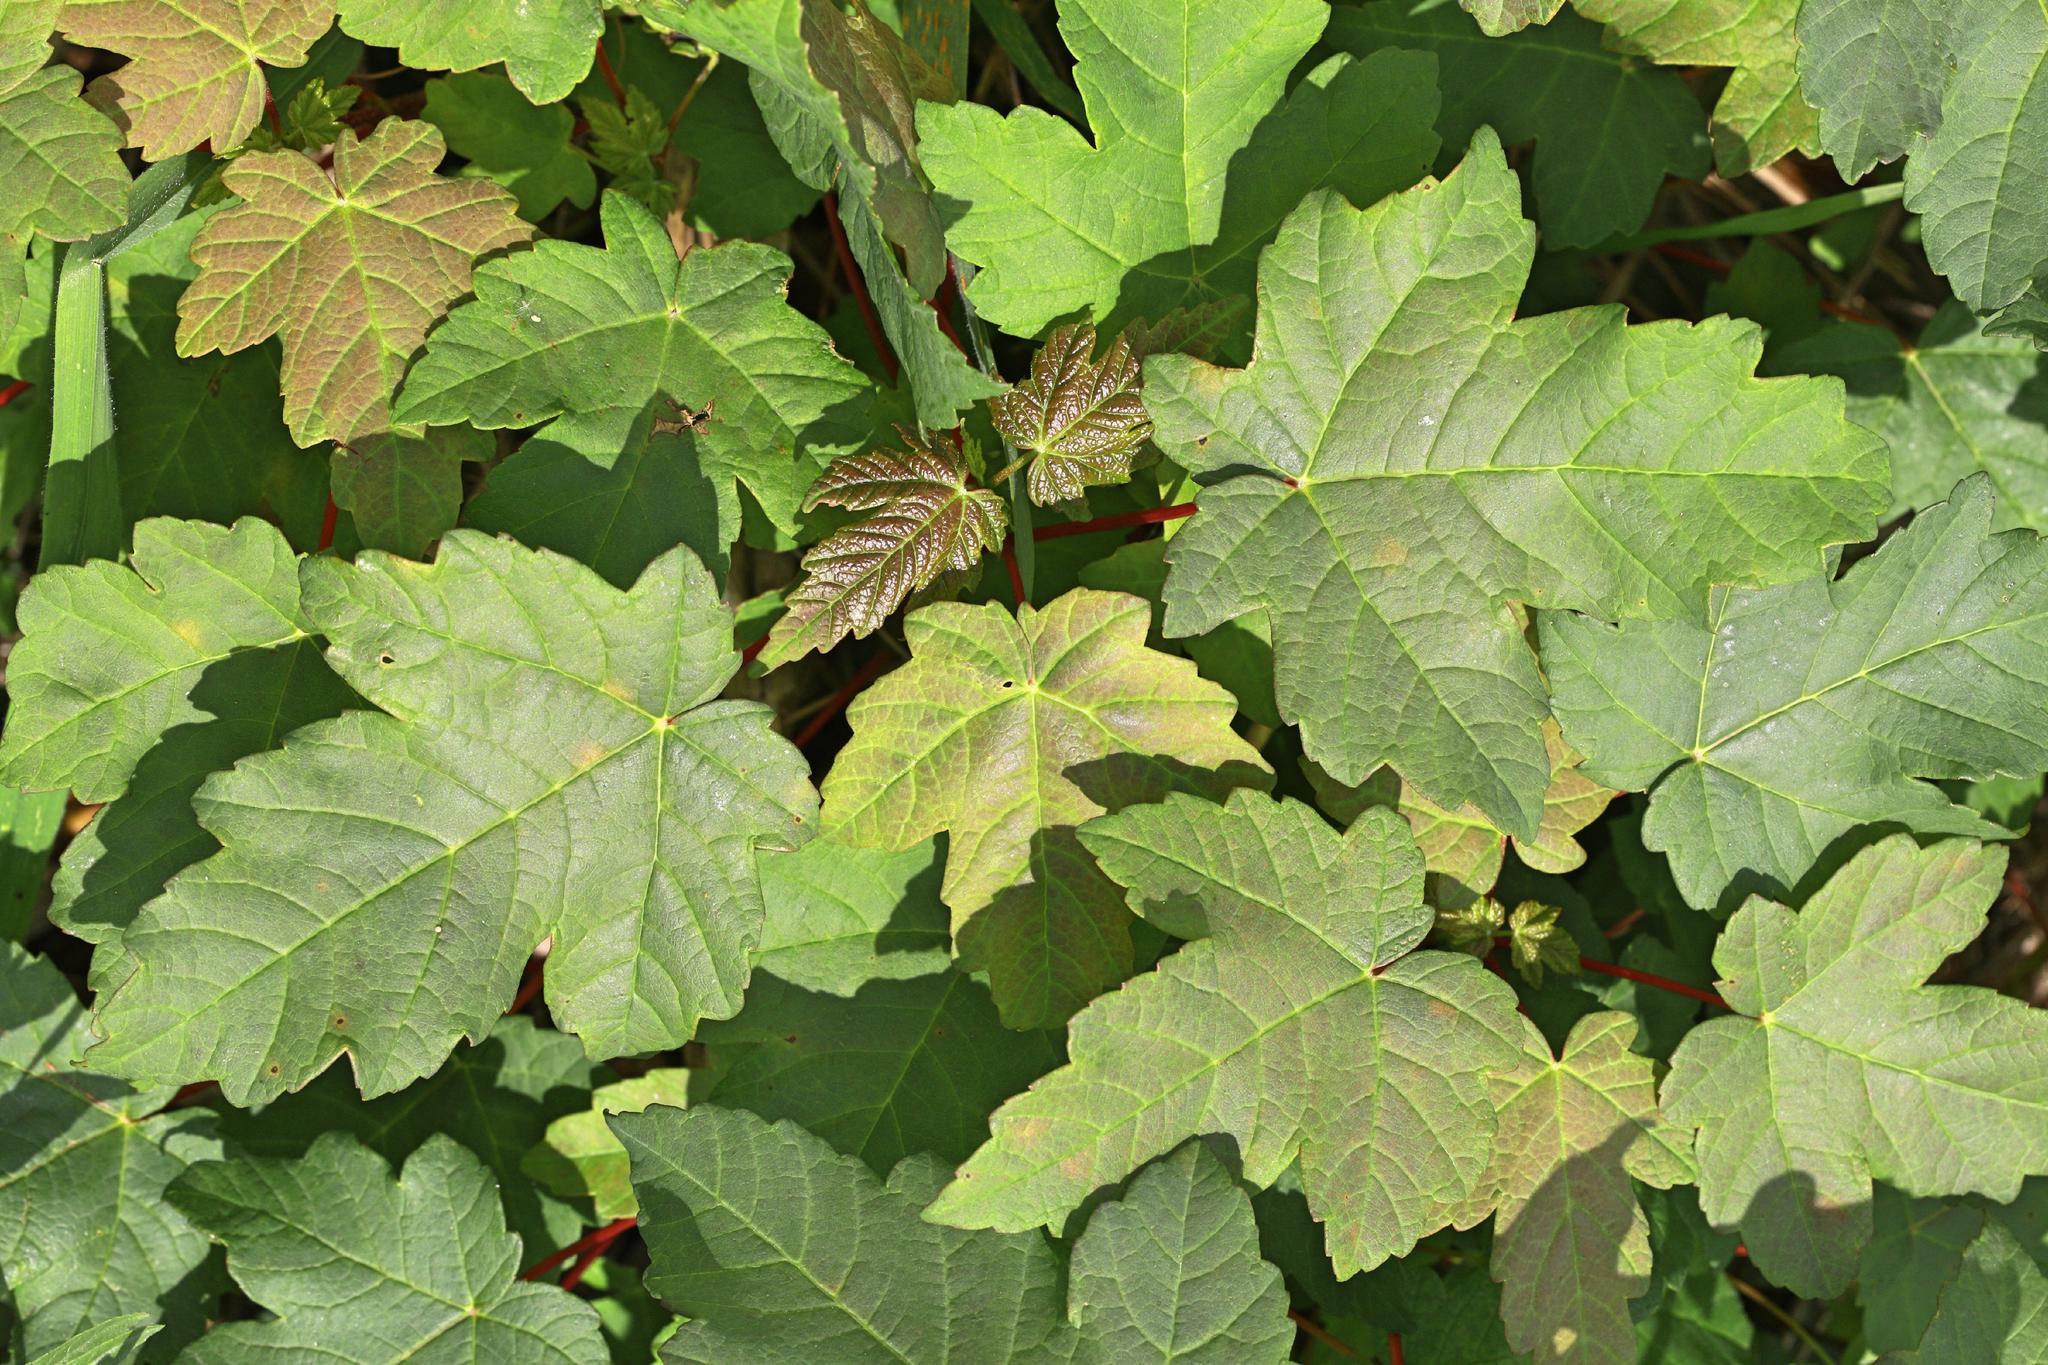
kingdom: Plantae
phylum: Tracheophyta
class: Magnoliopsida
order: Sapindales
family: Sapindaceae
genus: Acer
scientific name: Acer pseudoplatanus
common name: Sycamore
